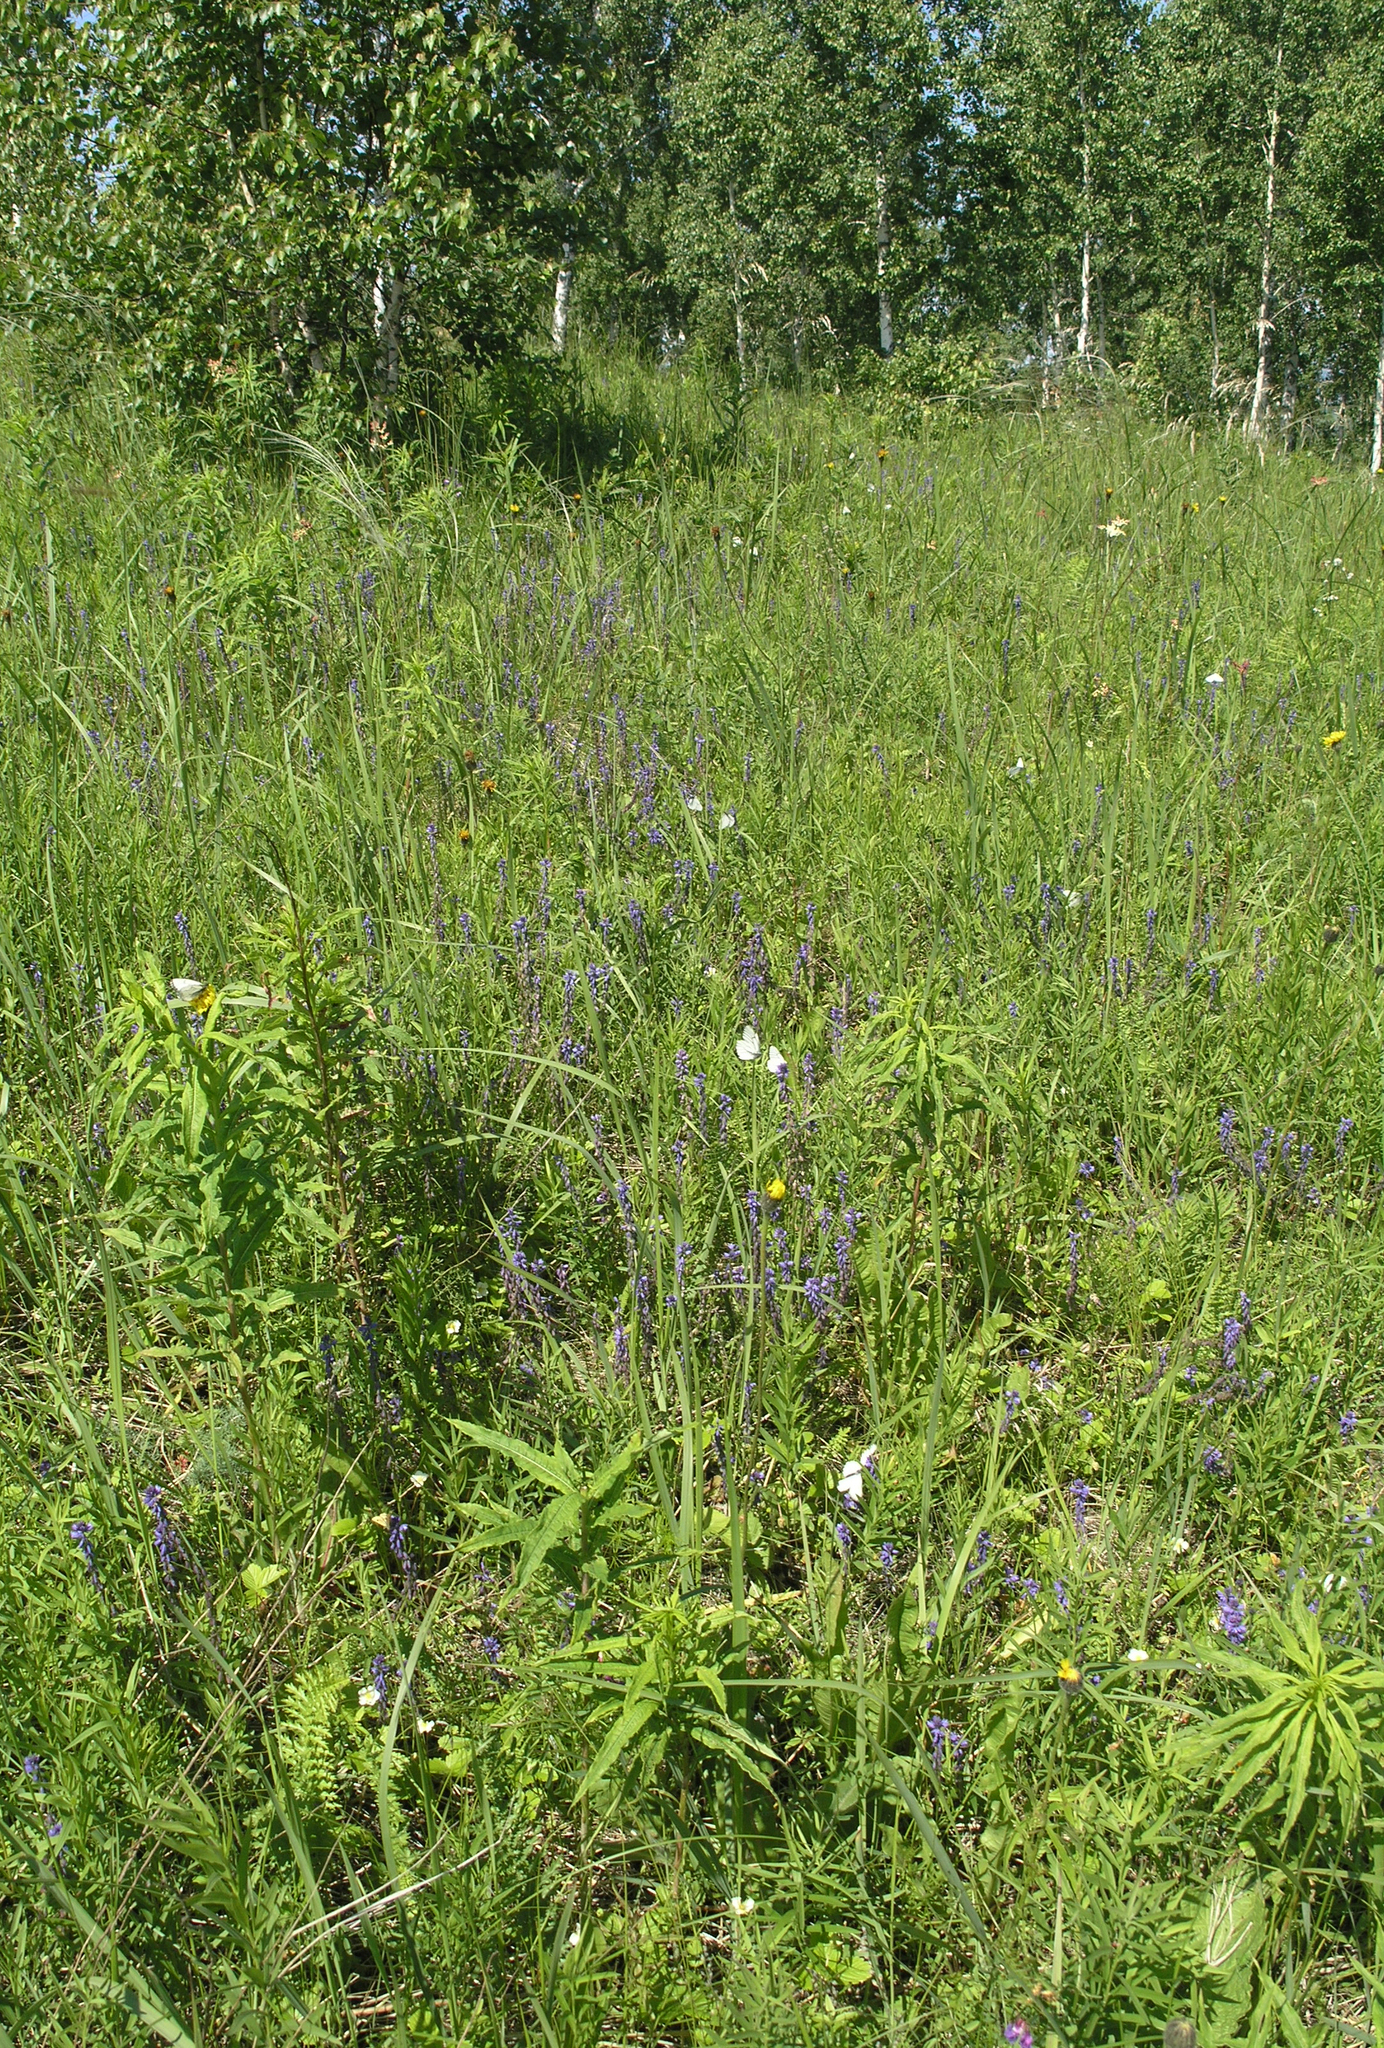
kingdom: Plantae
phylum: Tracheophyta
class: Magnoliopsida
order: Fabales
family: Polygalaceae
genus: Polygala
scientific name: Polygala comosa
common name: Tufted milkwort
